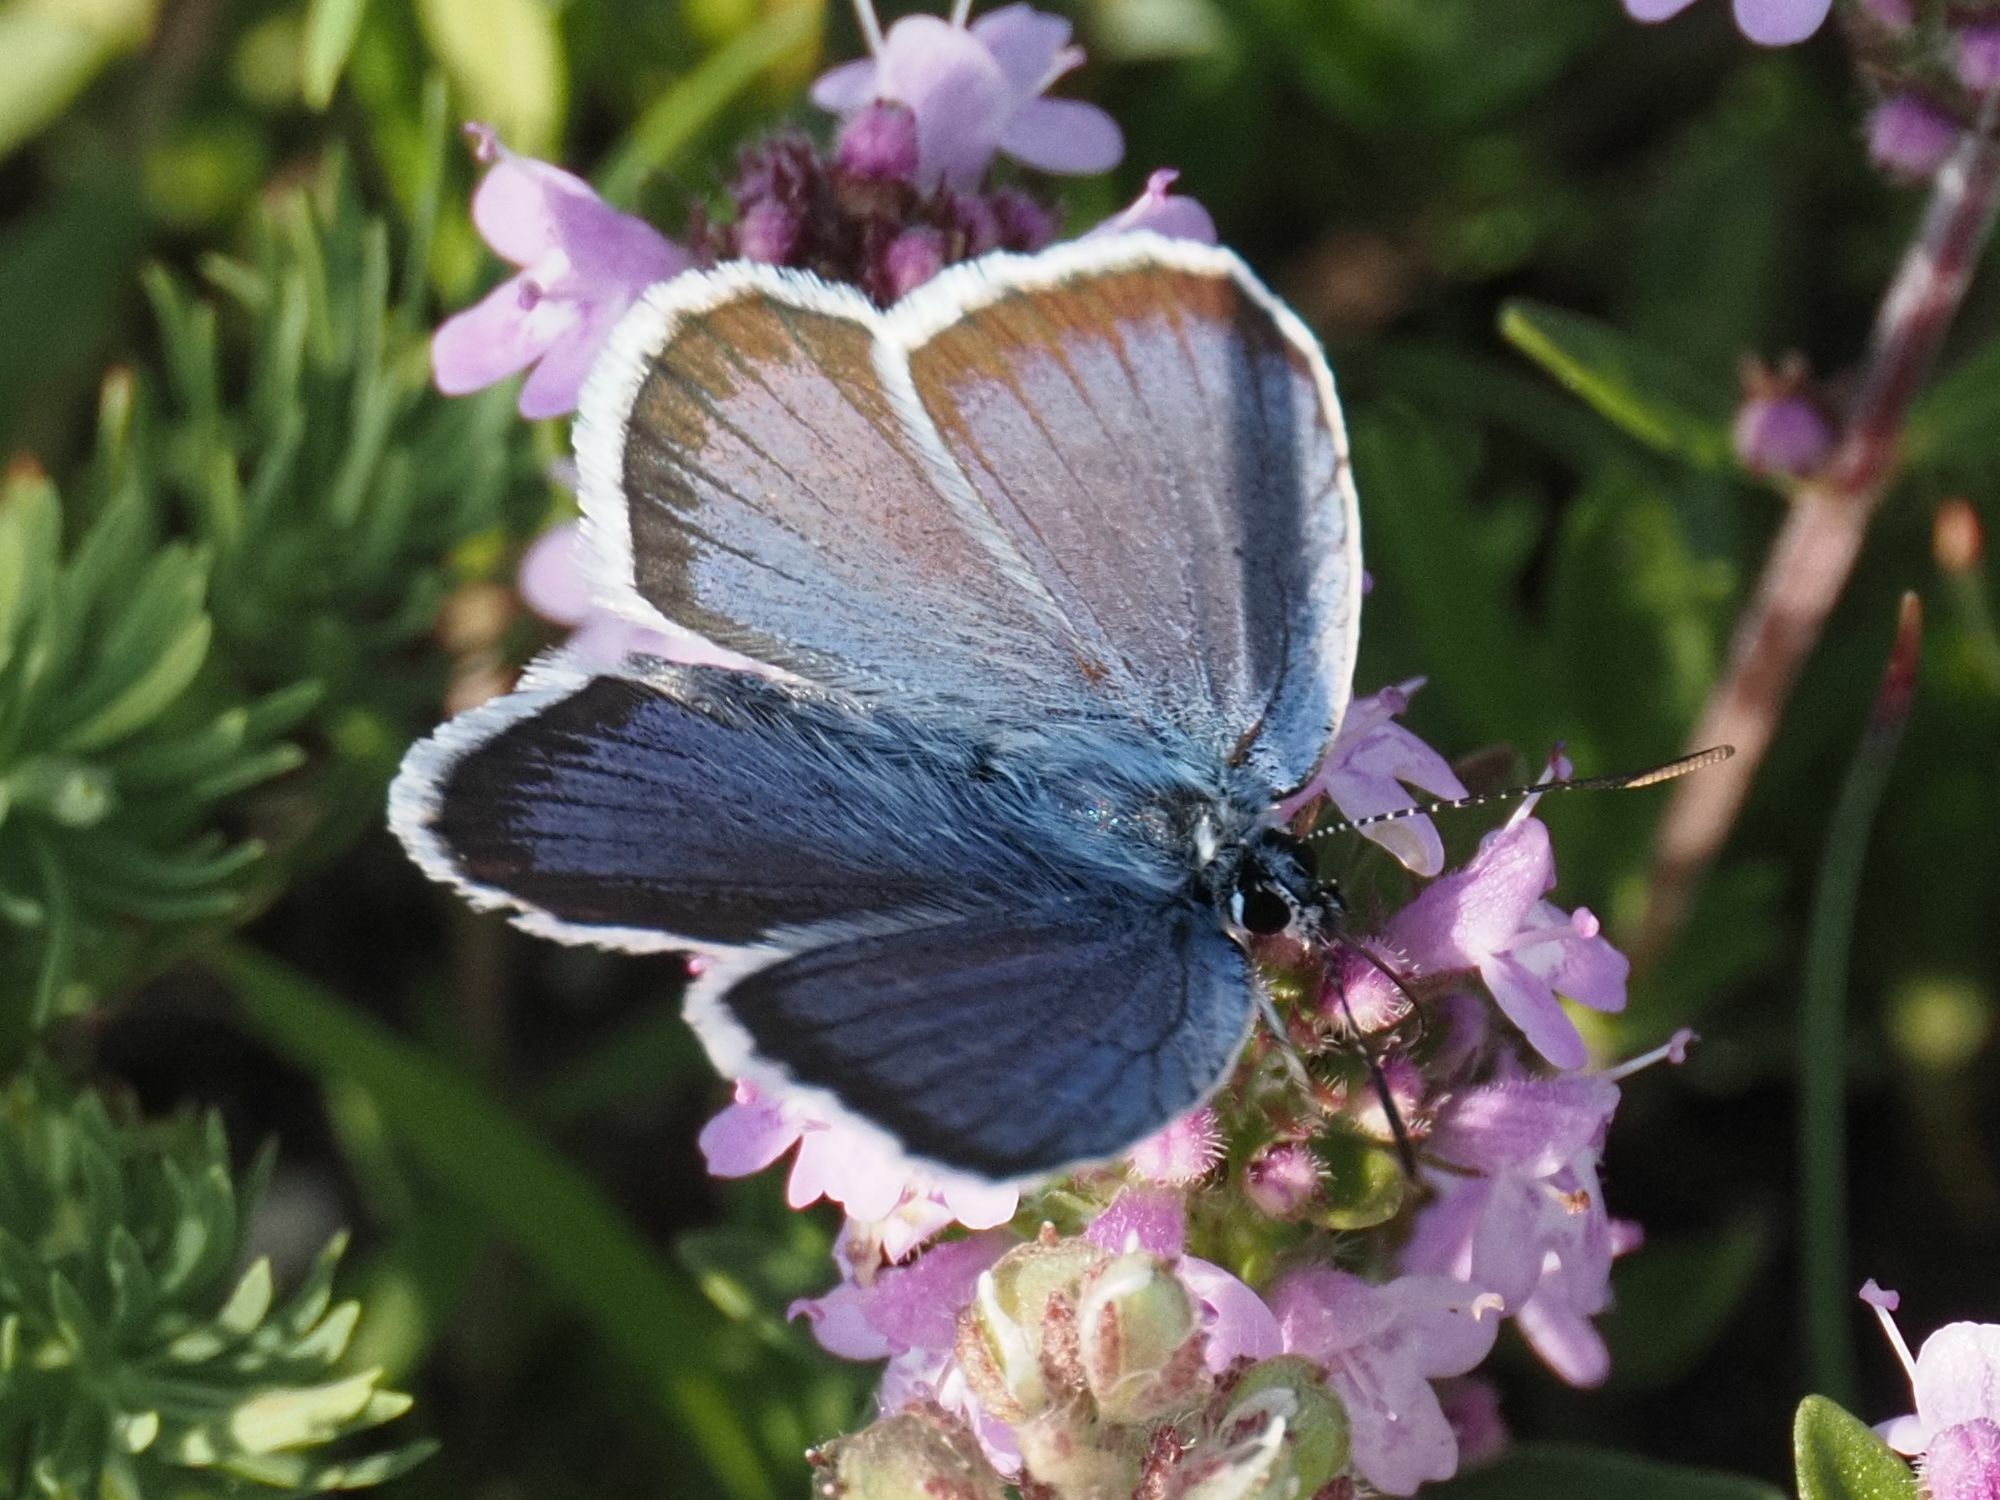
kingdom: Animalia
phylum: Arthropoda
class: Insecta
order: Lepidoptera
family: Lycaenidae
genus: Plebejus
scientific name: Plebejus argus
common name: Silver-studded blue
